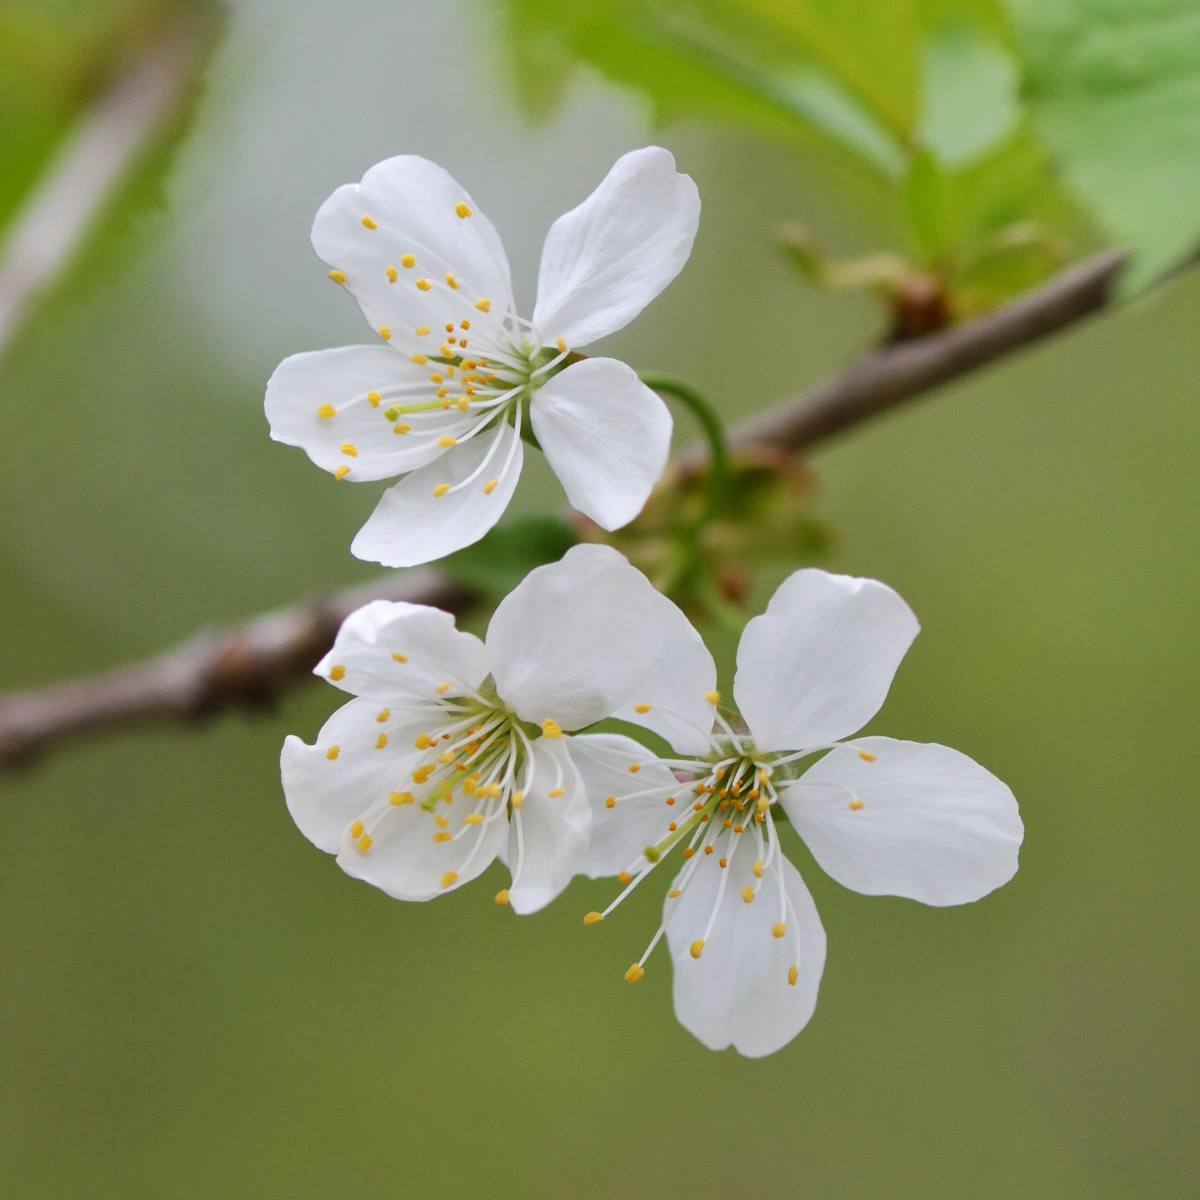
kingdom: Plantae
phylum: Tracheophyta
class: Magnoliopsida
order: Rosales
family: Rosaceae
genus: Prunus
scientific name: Prunus avium
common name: Sweet cherry
